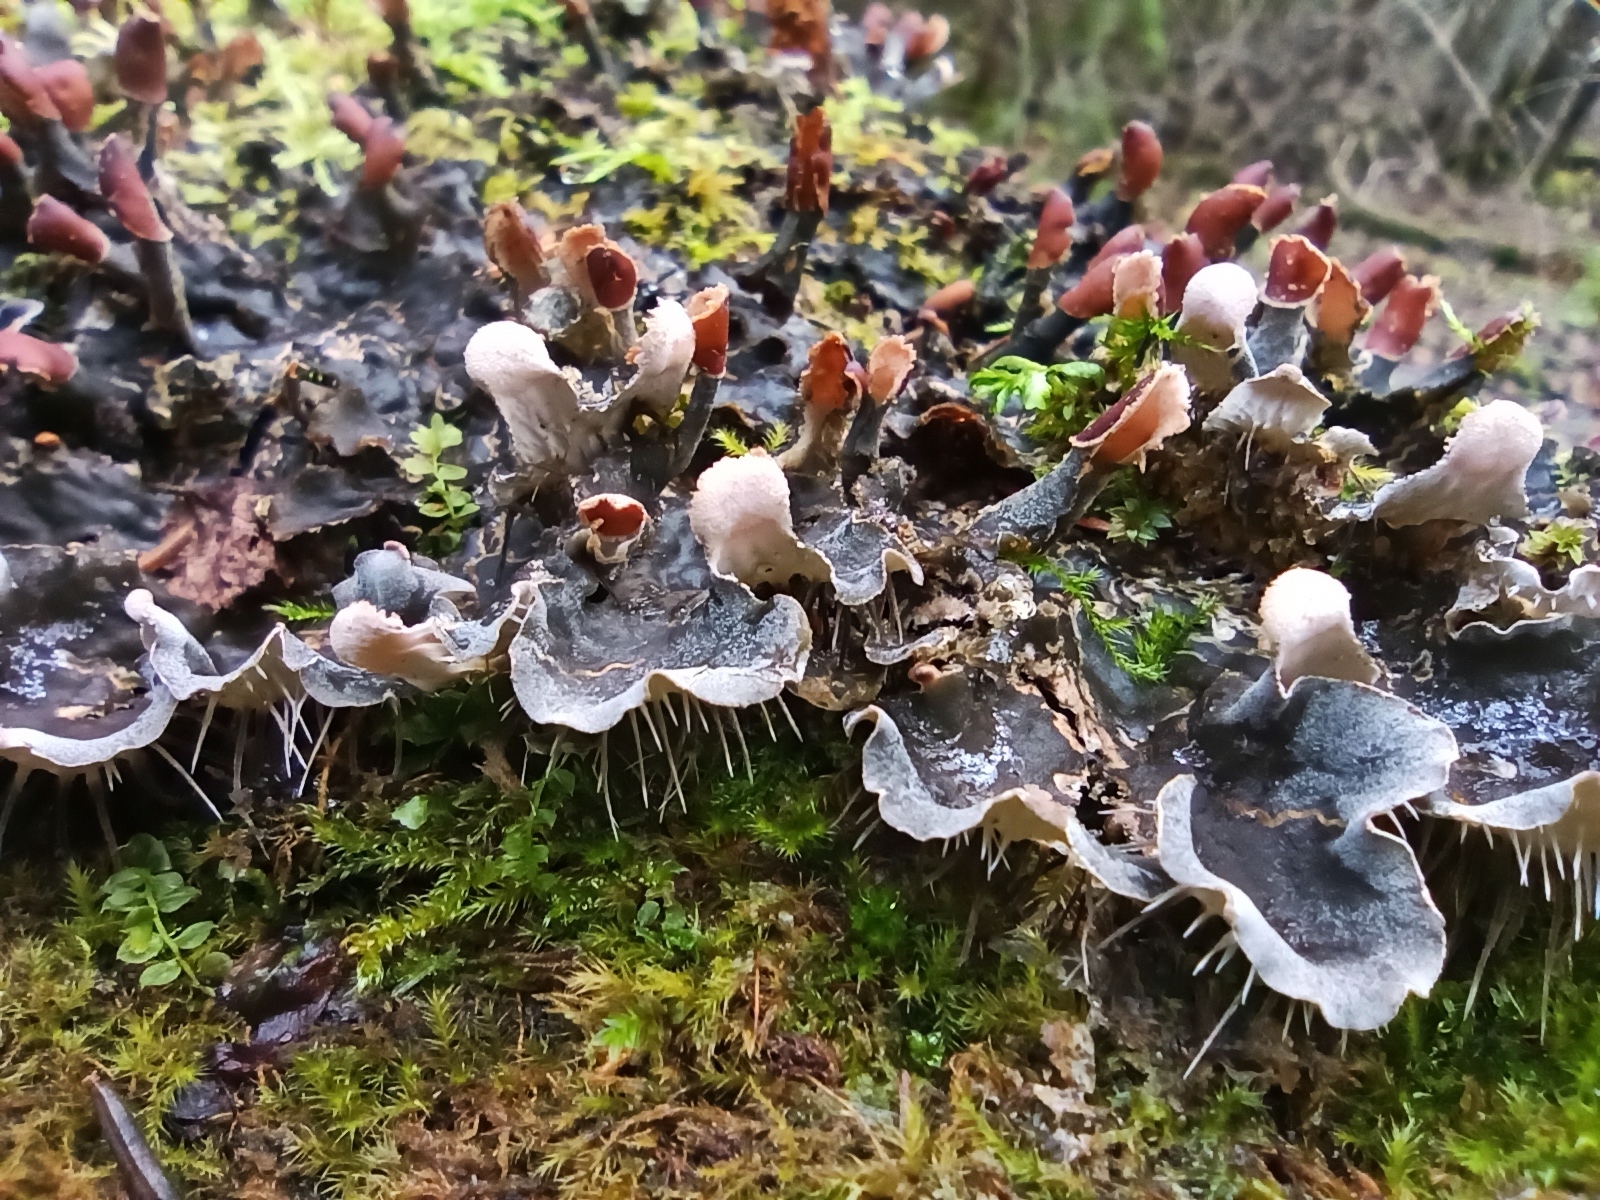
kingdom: Fungi
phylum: Ascomycota
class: Lecanoromycetes
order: Peltigerales
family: Peltigeraceae
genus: Peltigera
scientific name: Peltigera praetextata
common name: Scaly dog-lichen
